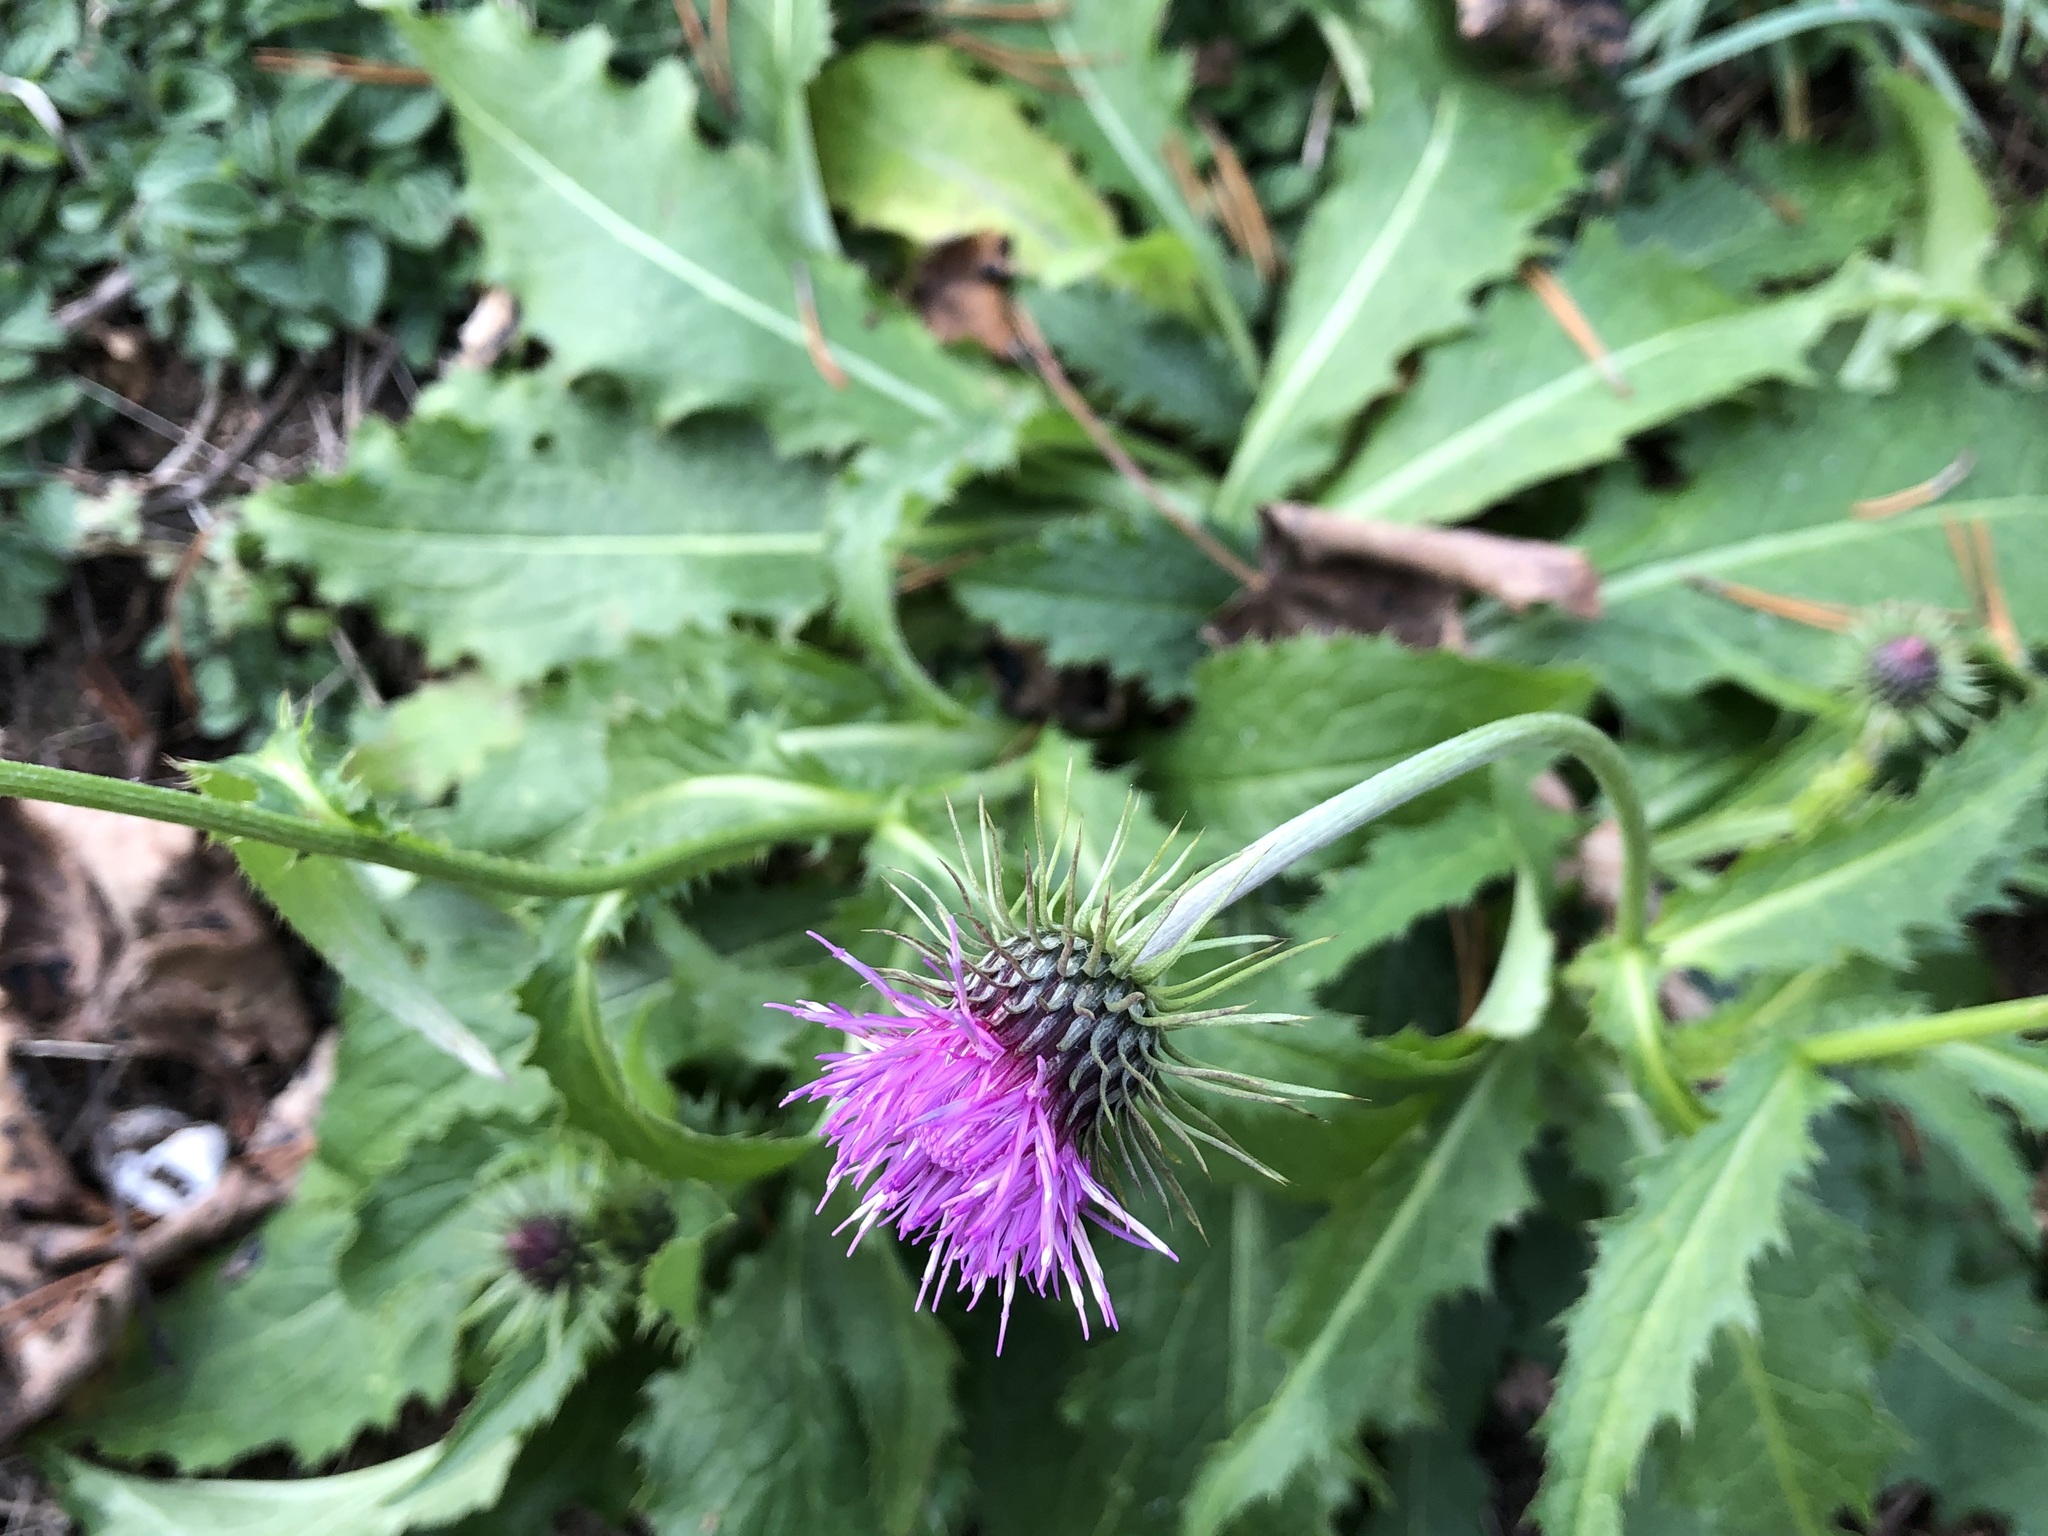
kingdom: Plantae
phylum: Tracheophyta
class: Magnoliopsida
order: Asterales
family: Asteraceae
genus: Carduus
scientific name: Carduus defloratus
